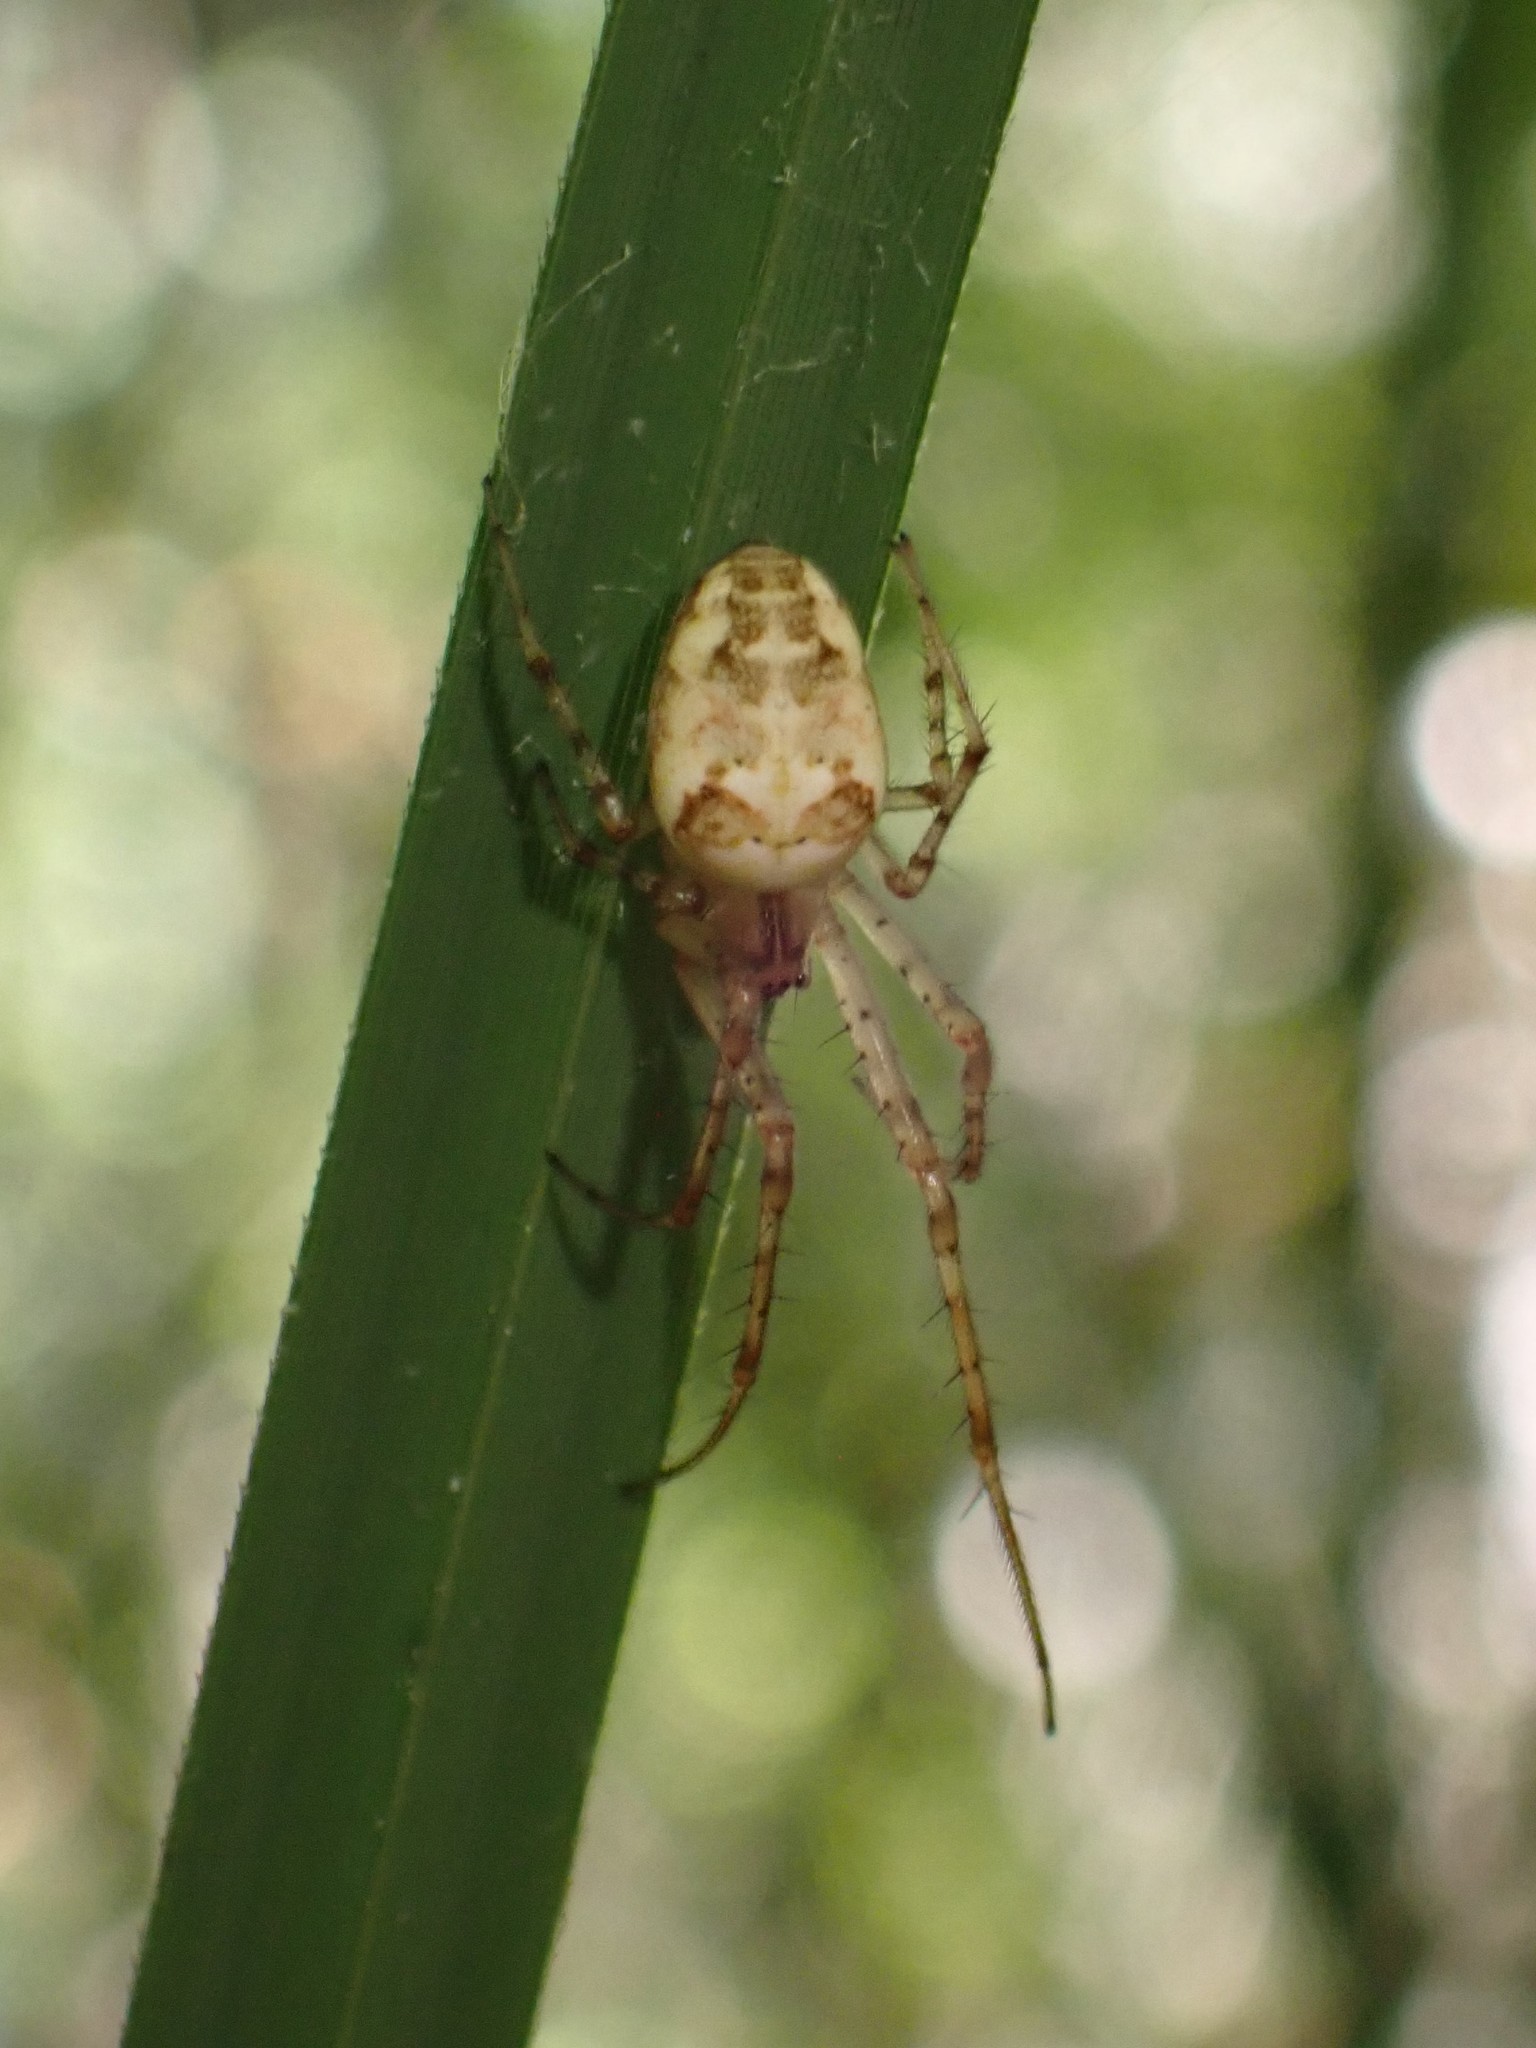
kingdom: Animalia
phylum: Arthropoda
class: Arachnida
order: Araneae
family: Tetragnathidae
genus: Metellina
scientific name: Metellina segmentata
